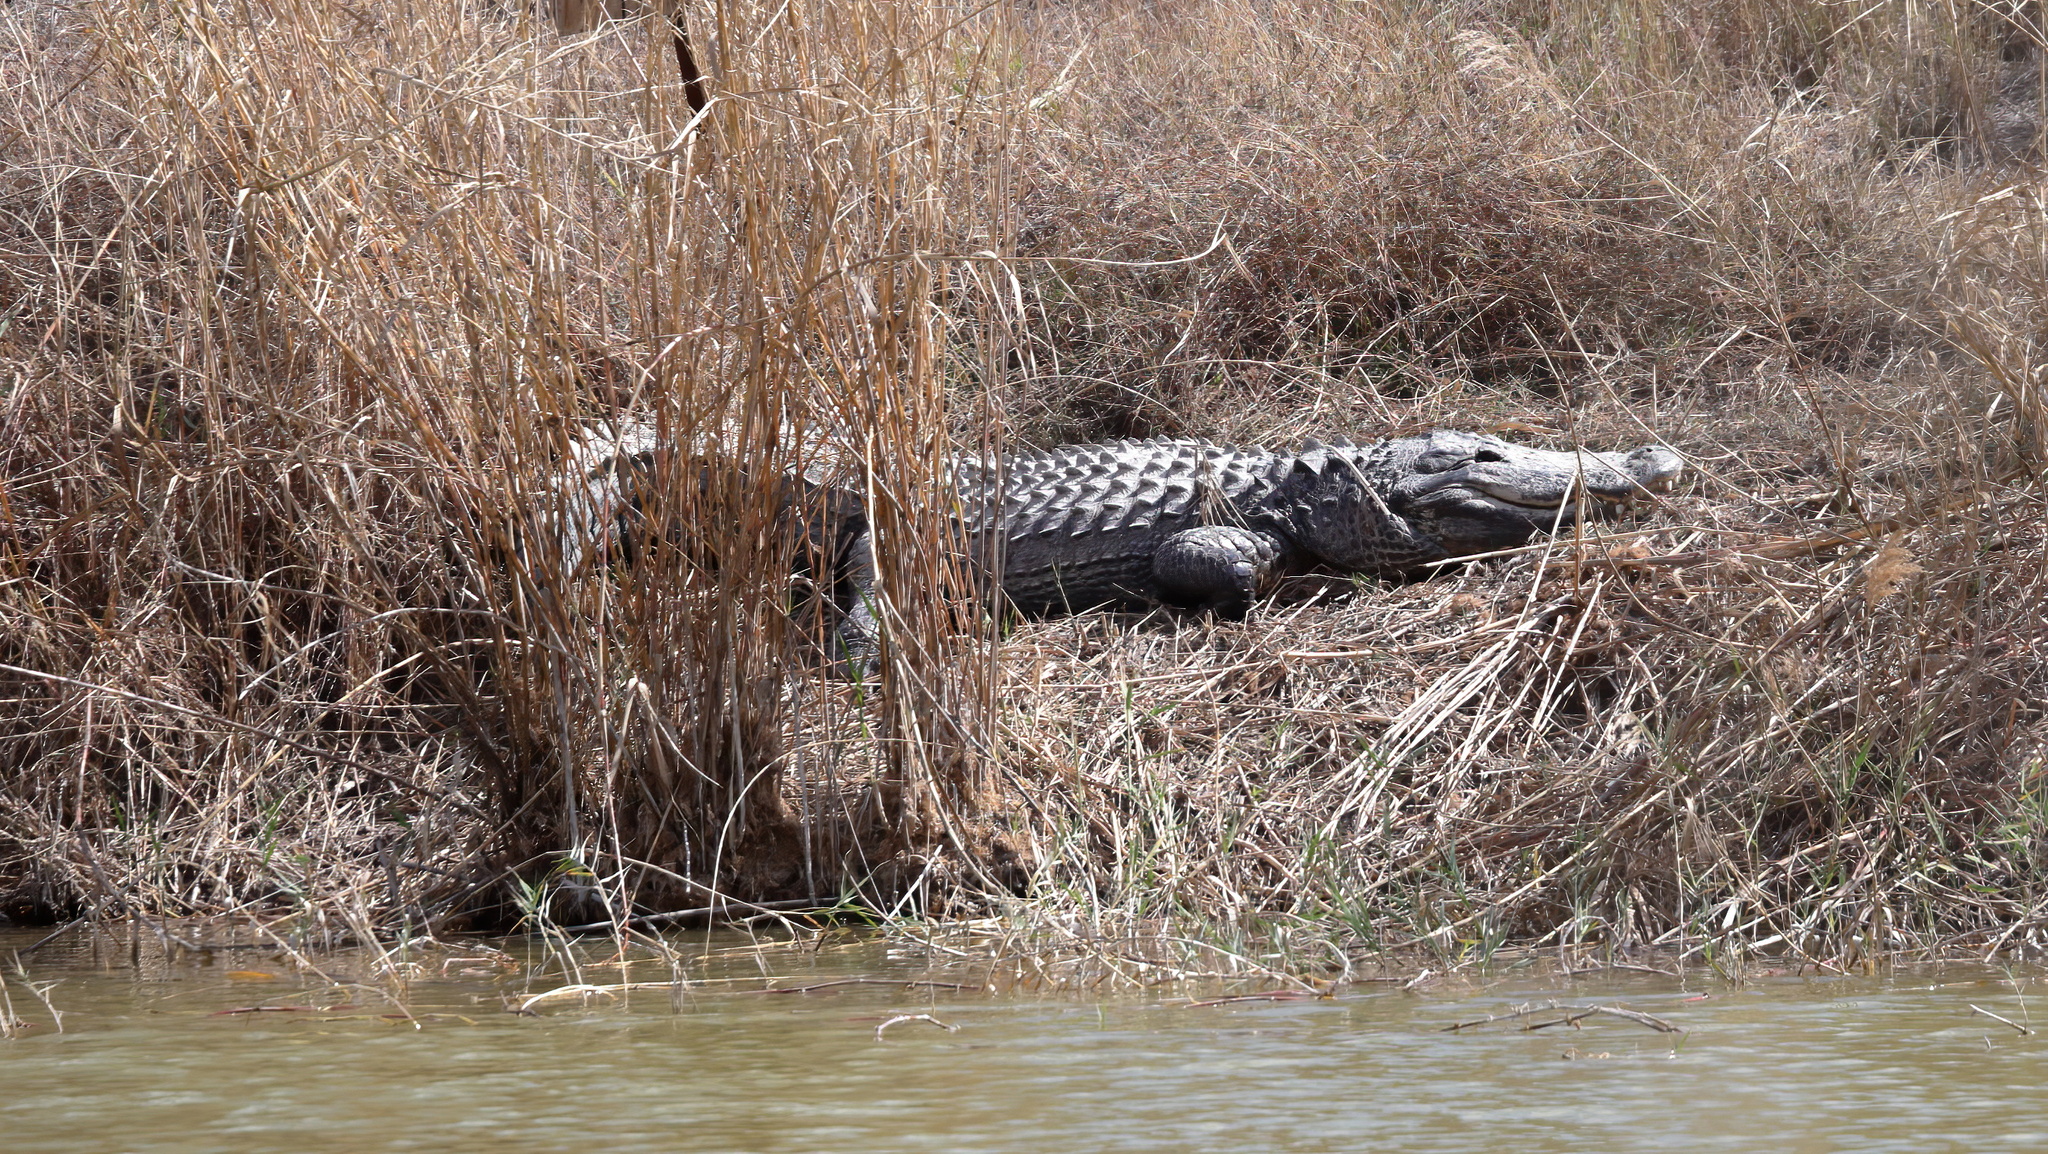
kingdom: Animalia
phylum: Chordata
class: Crocodylia
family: Alligatoridae
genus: Alligator
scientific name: Alligator mississippiensis
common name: American alligator
